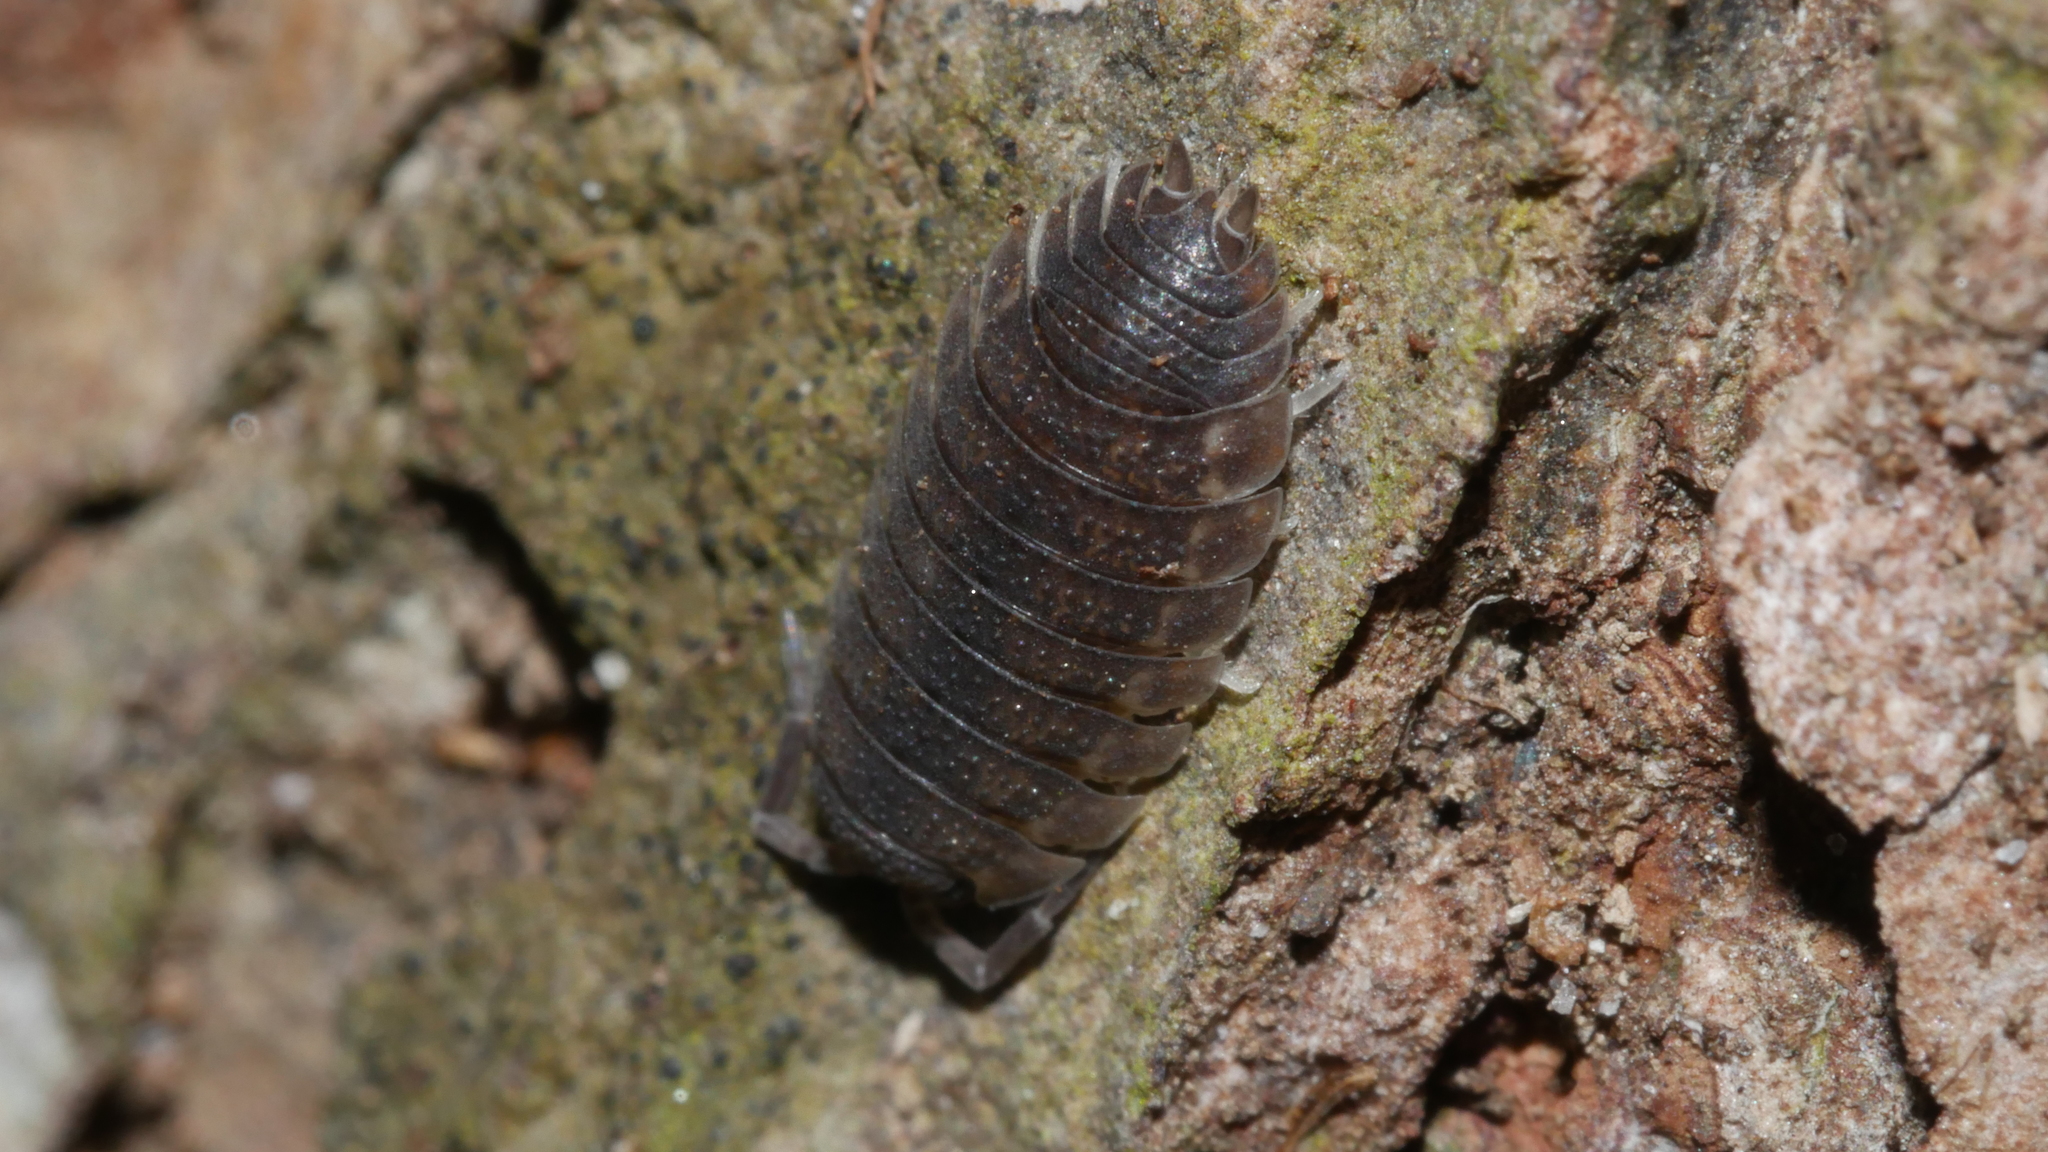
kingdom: Animalia
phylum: Arthropoda
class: Malacostraca
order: Isopoda
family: Porcellionidae
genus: Porcellio
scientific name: Porcellio scaber
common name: Common rough woodlouse
